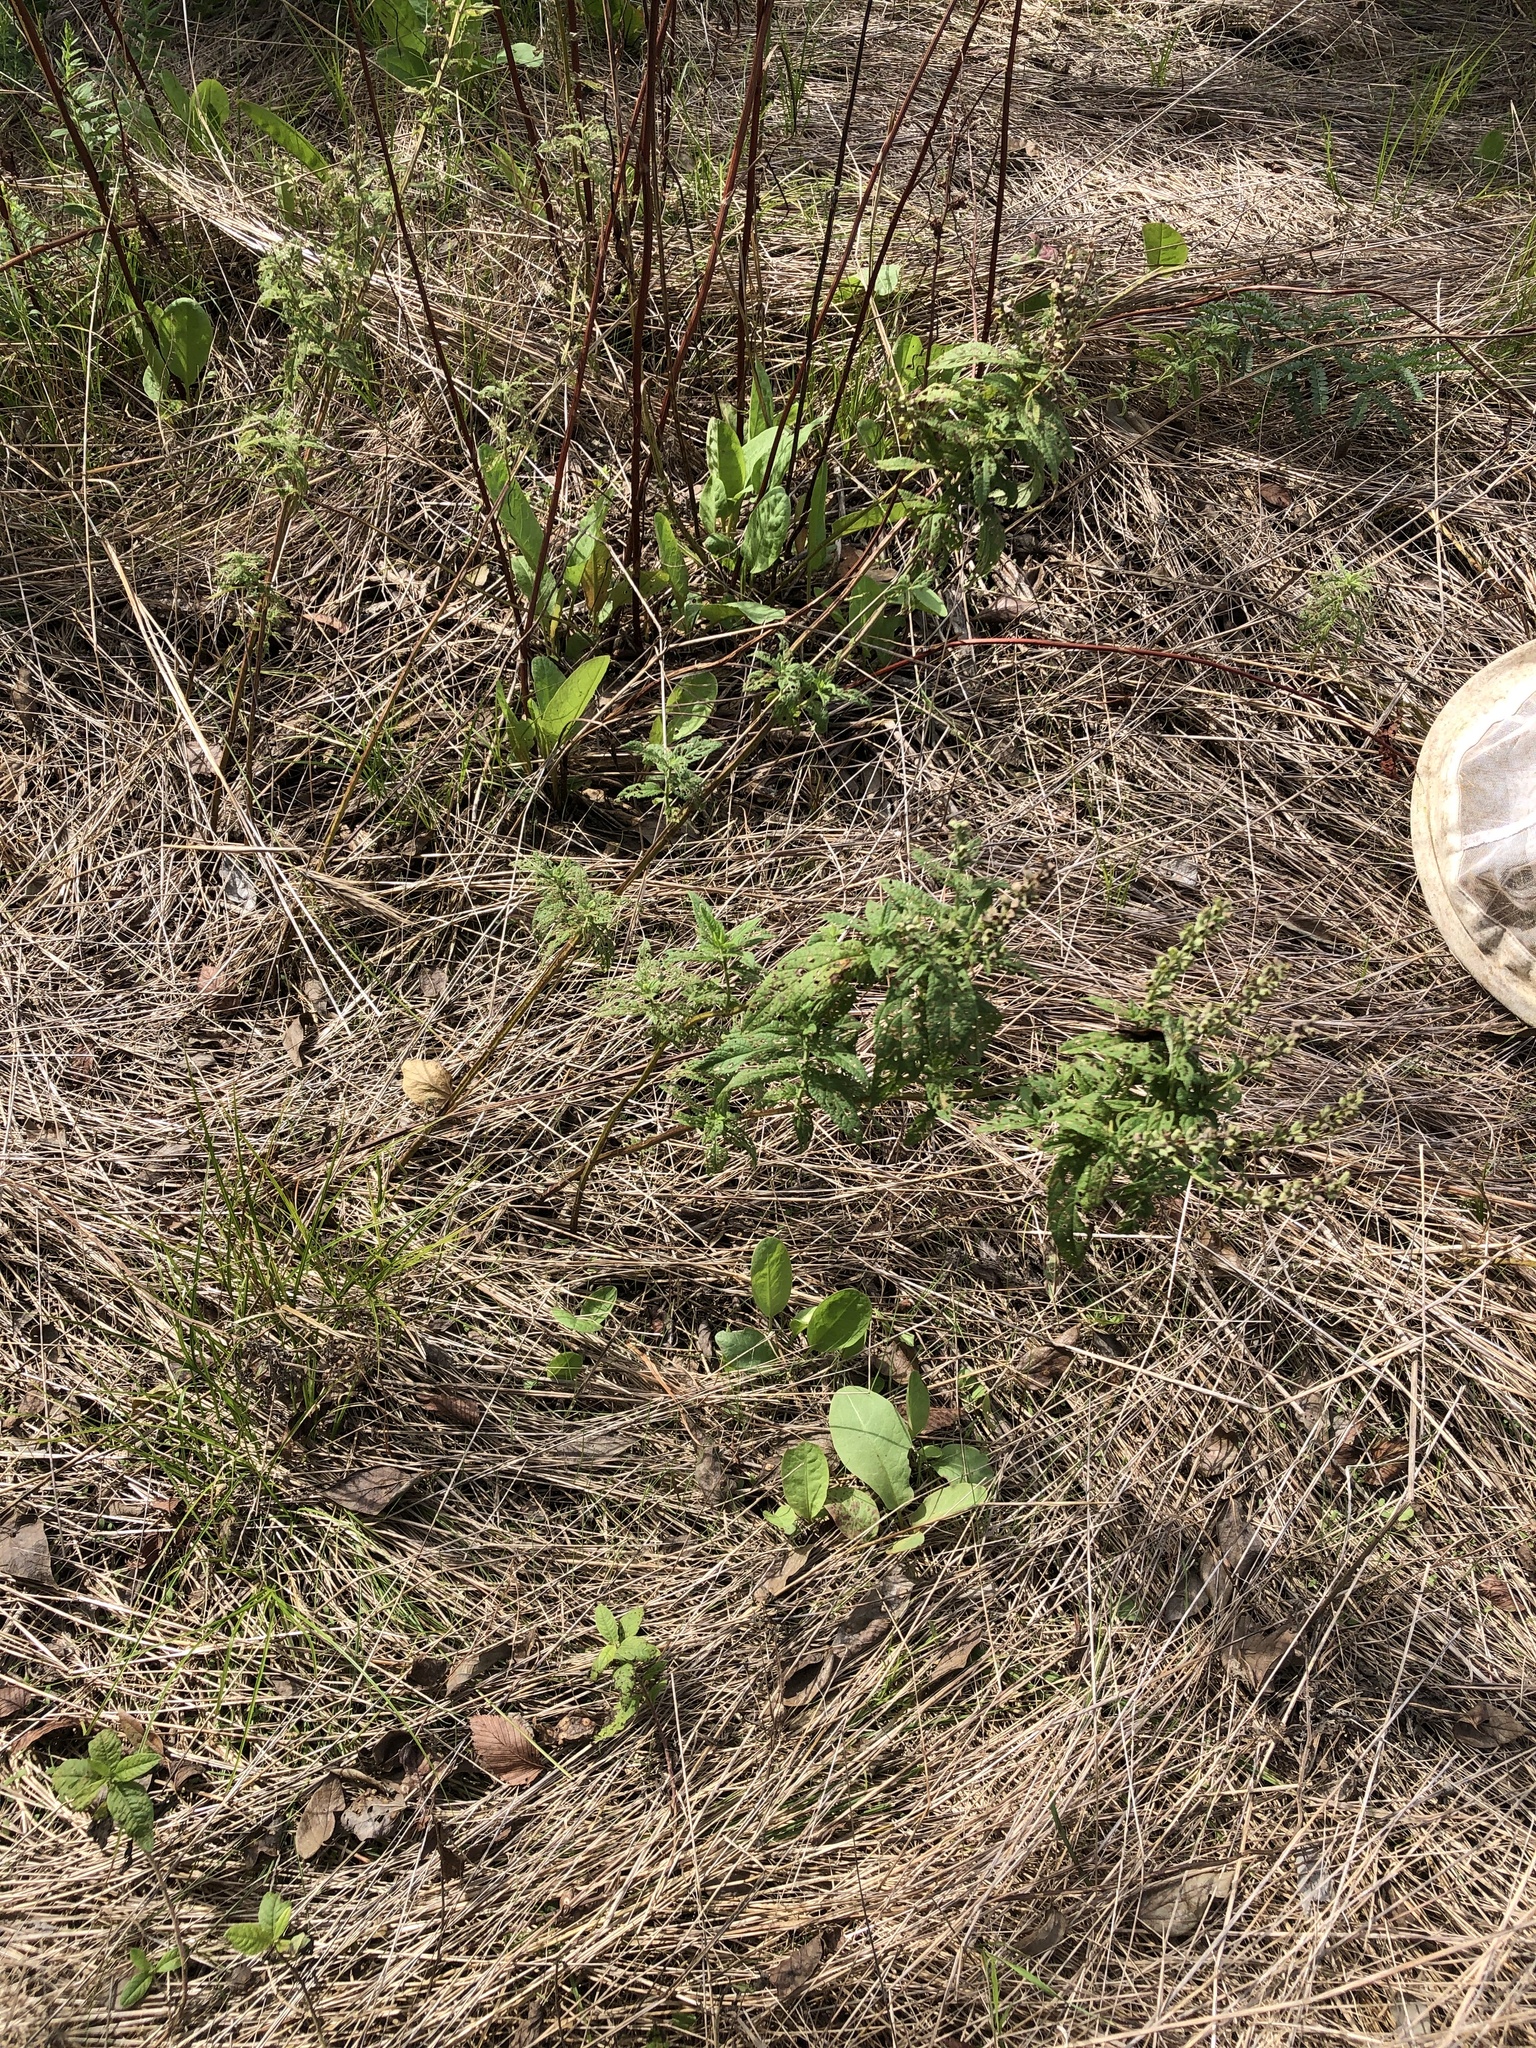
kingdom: Plantae
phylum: Tracheophyta
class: Magnoliopsida
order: Lamiales
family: Lamiaceae
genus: Teucrium
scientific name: Teucrium canadense
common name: American germander
